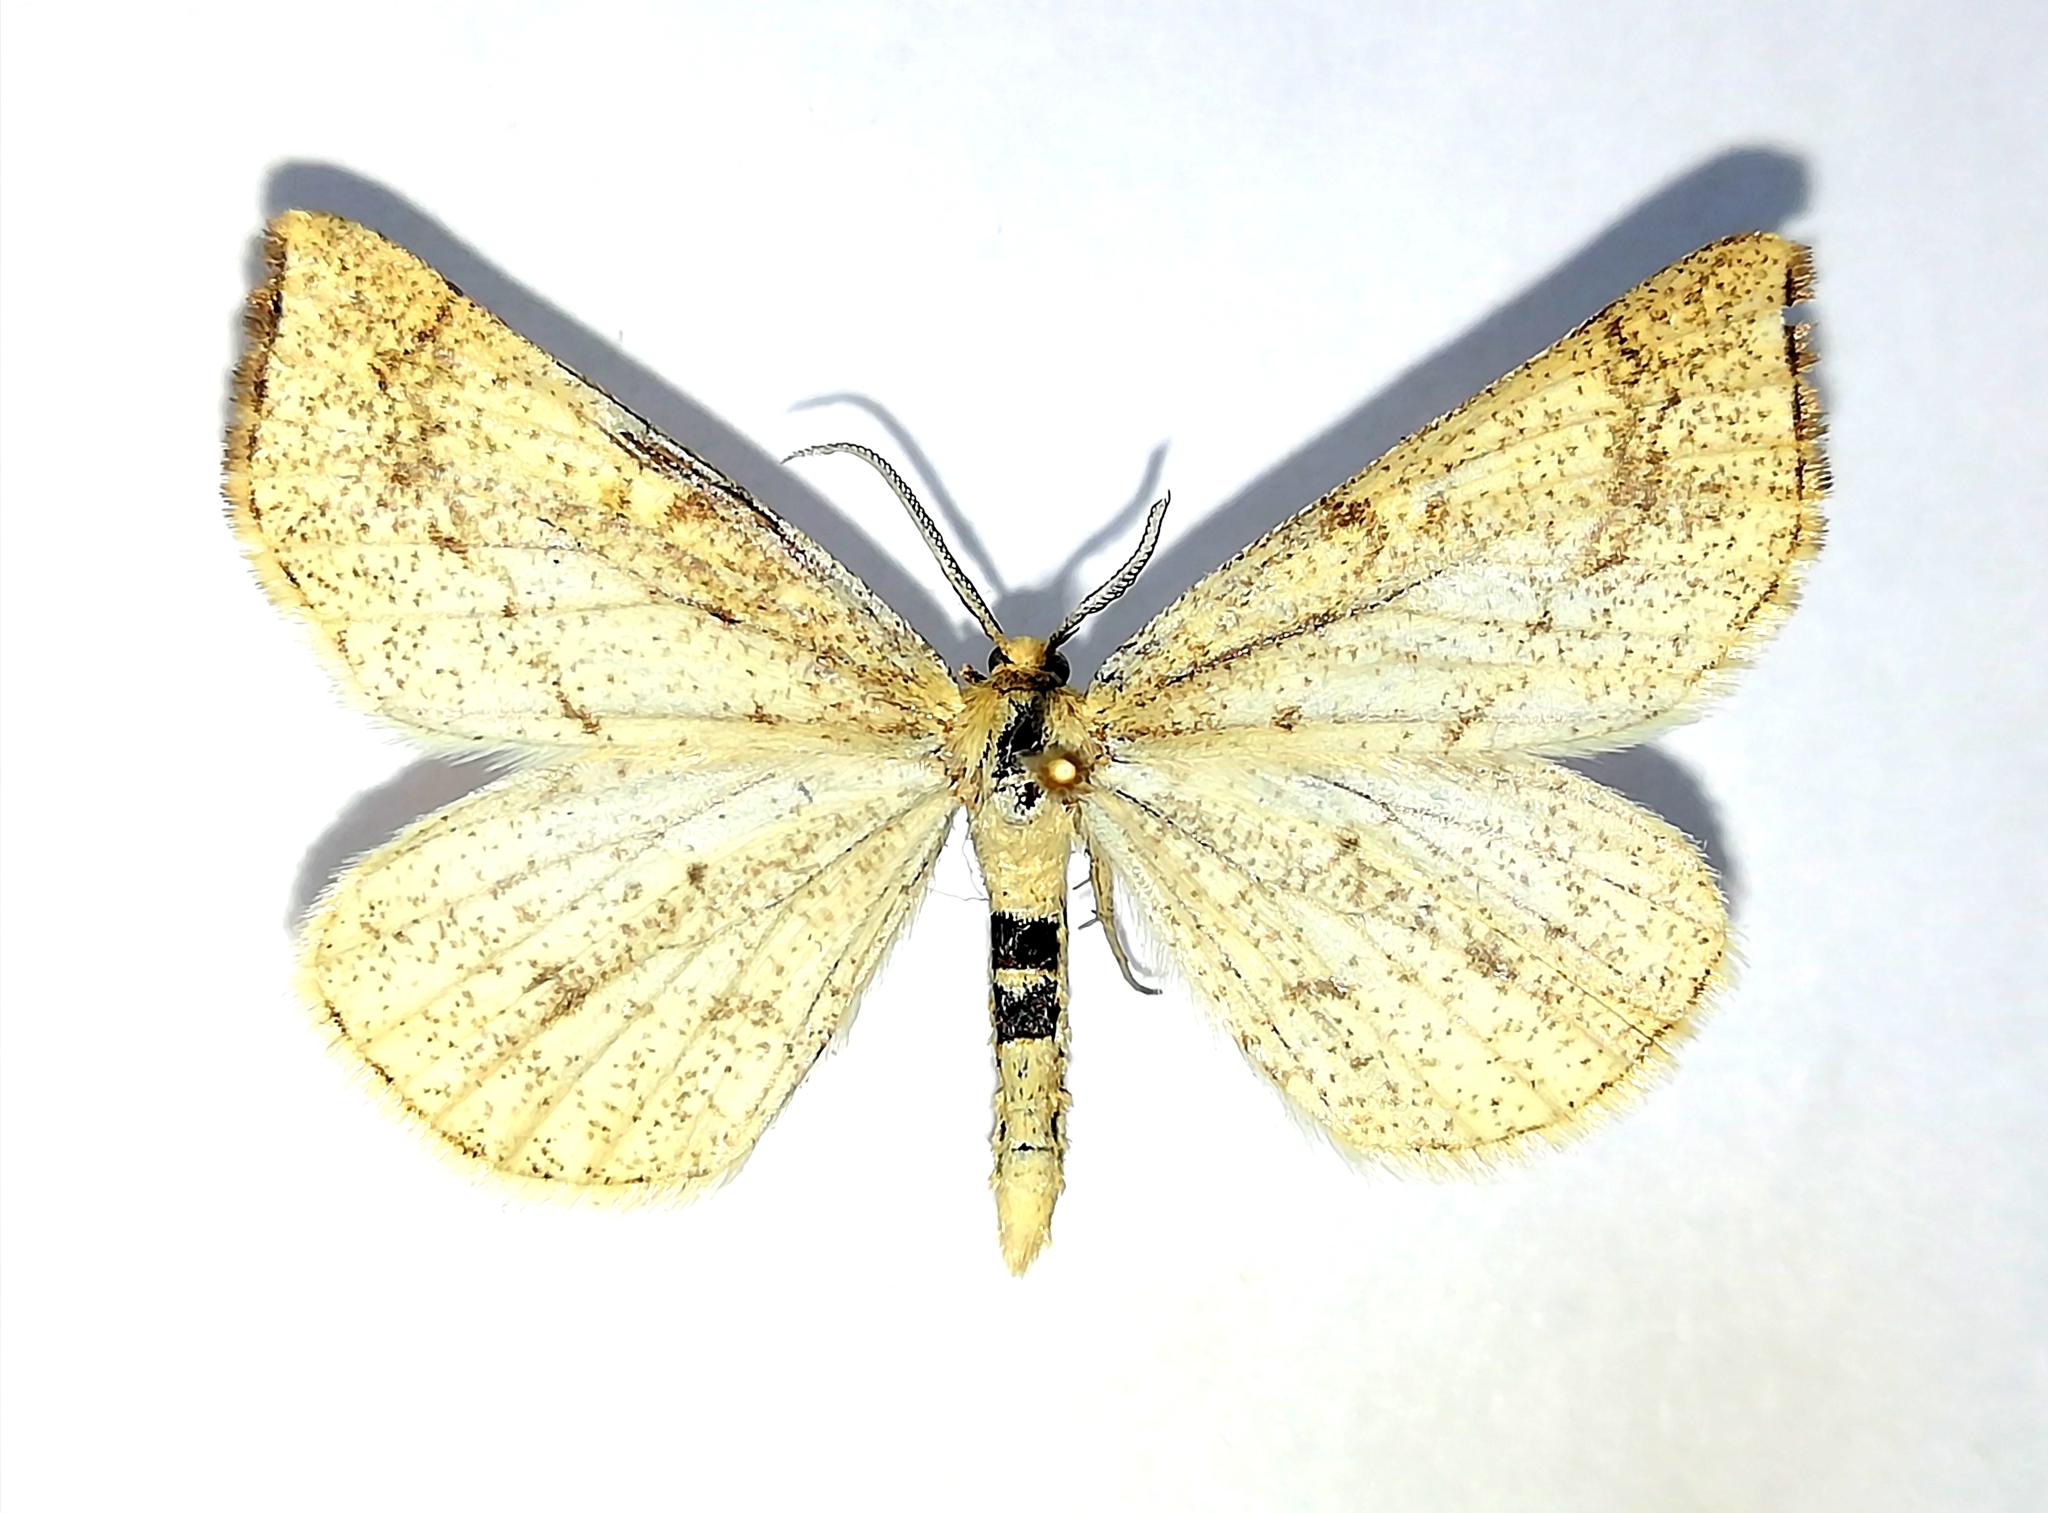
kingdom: Animalia
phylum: Arthropoda
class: Insecta
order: Lepidoptera
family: Geometridae
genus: Hypoxystis
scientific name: Hypoxystis pluviaria
